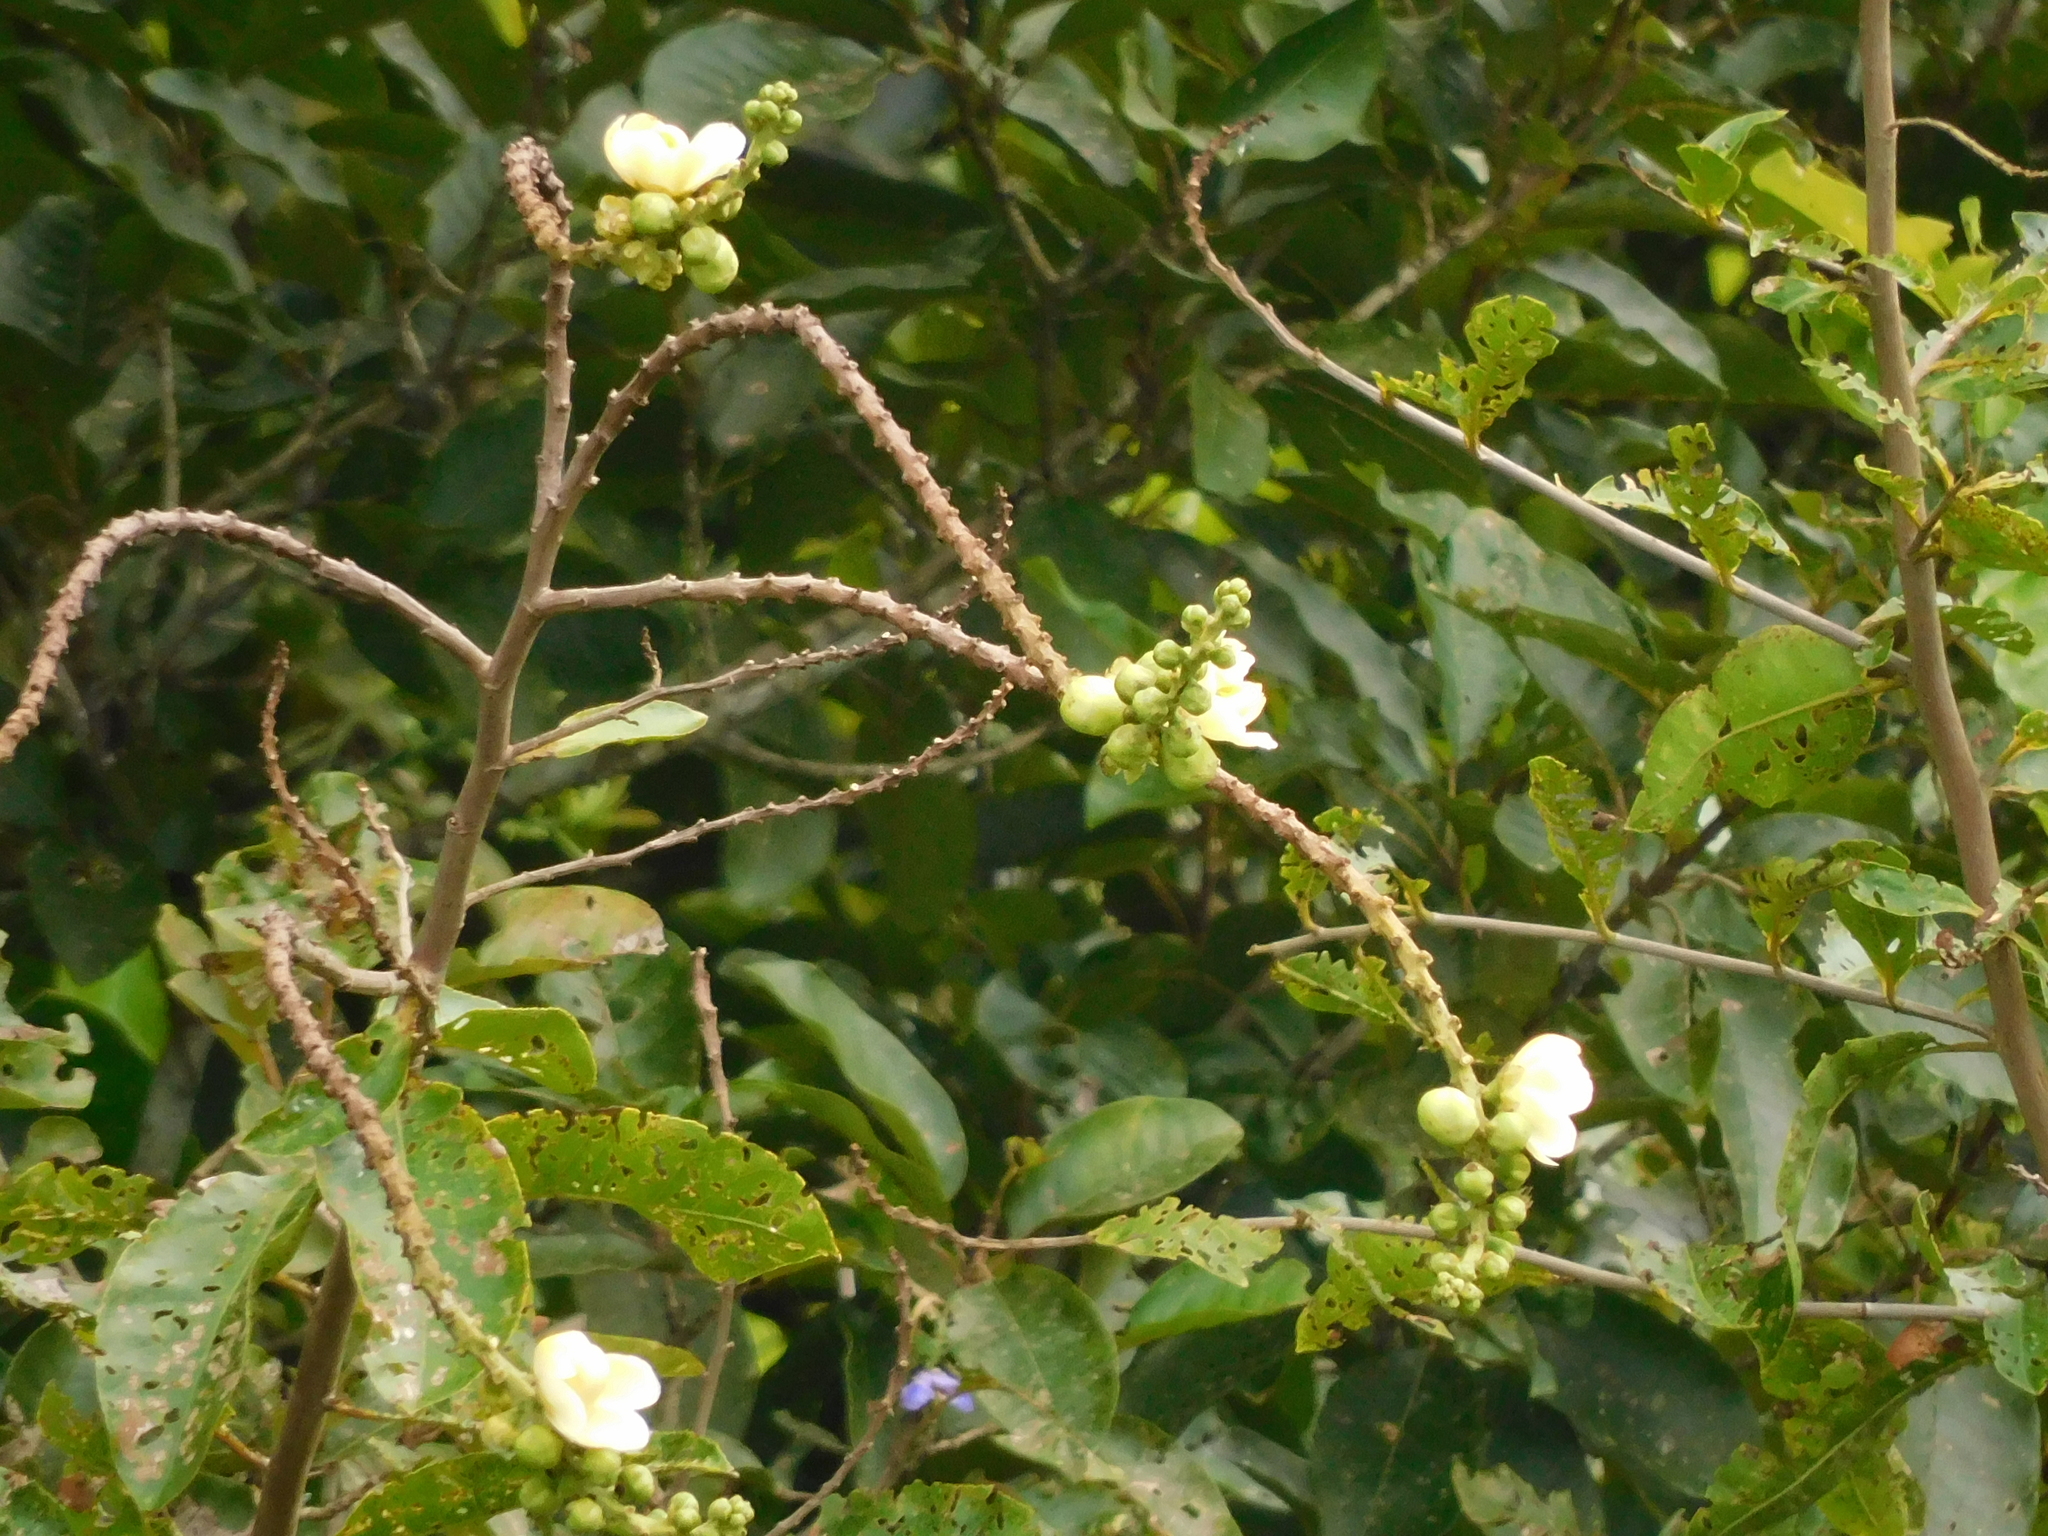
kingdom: Plantae
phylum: Tracheophyta
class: Magnoliopsida
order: Ericales
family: Lecythidaceae
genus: Lecythis
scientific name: Lecythis minor
